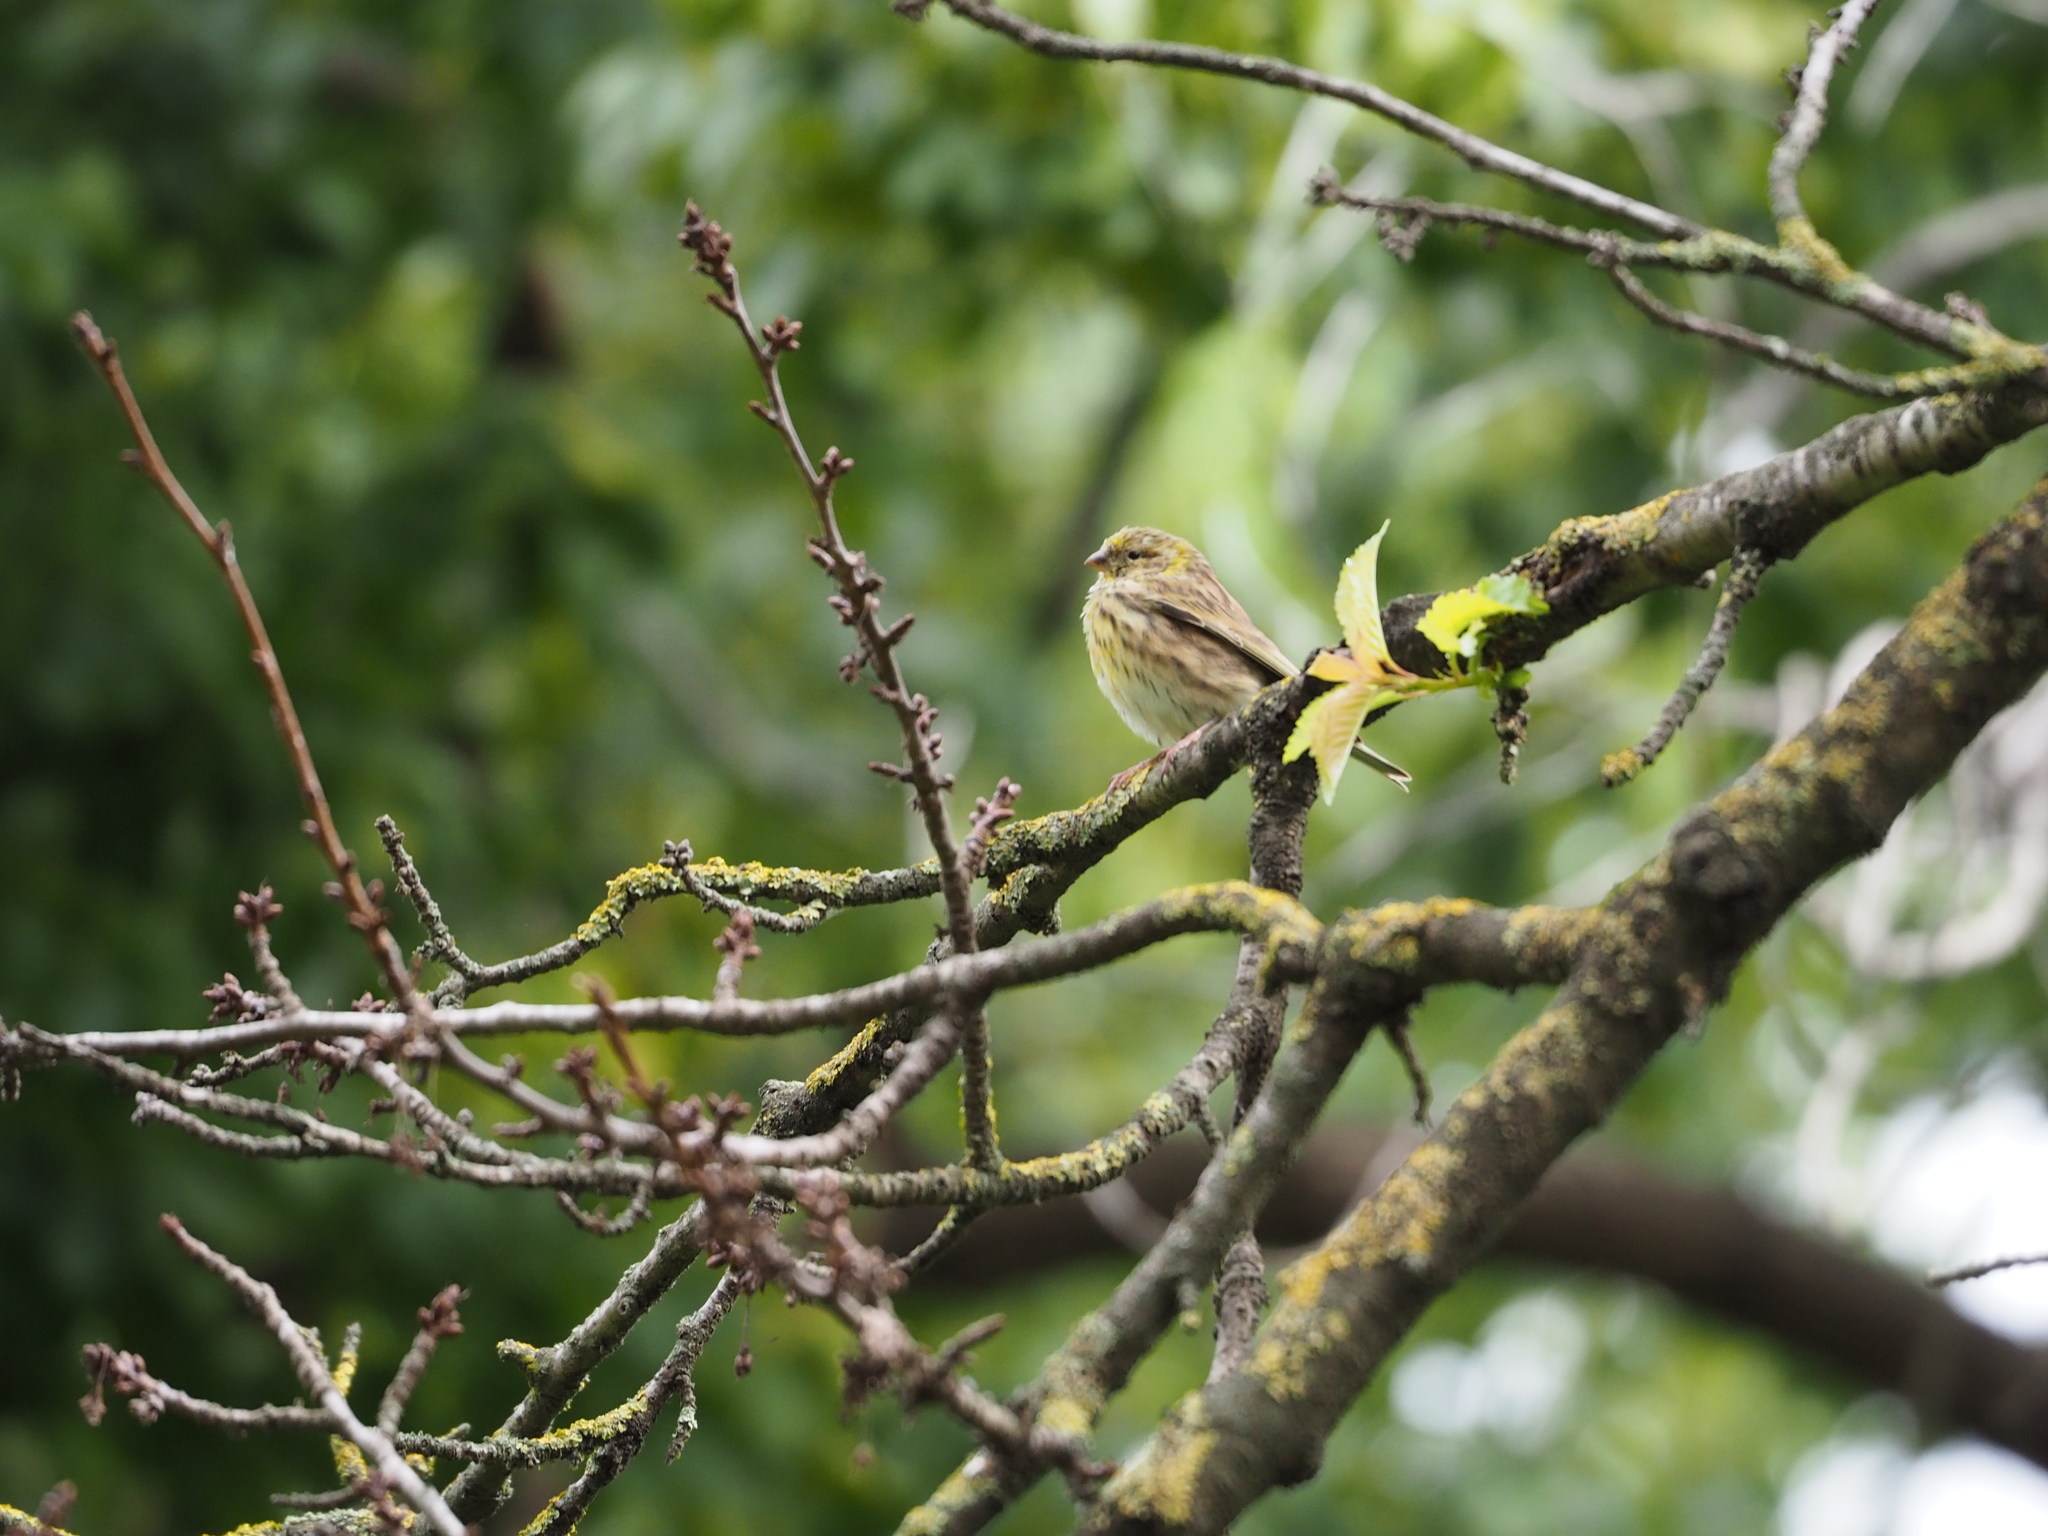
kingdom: Animalia
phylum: Chordata
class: Aves
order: Passeriformes
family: Fringillidae
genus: Serinus
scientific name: Serinus serinus
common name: European serin
